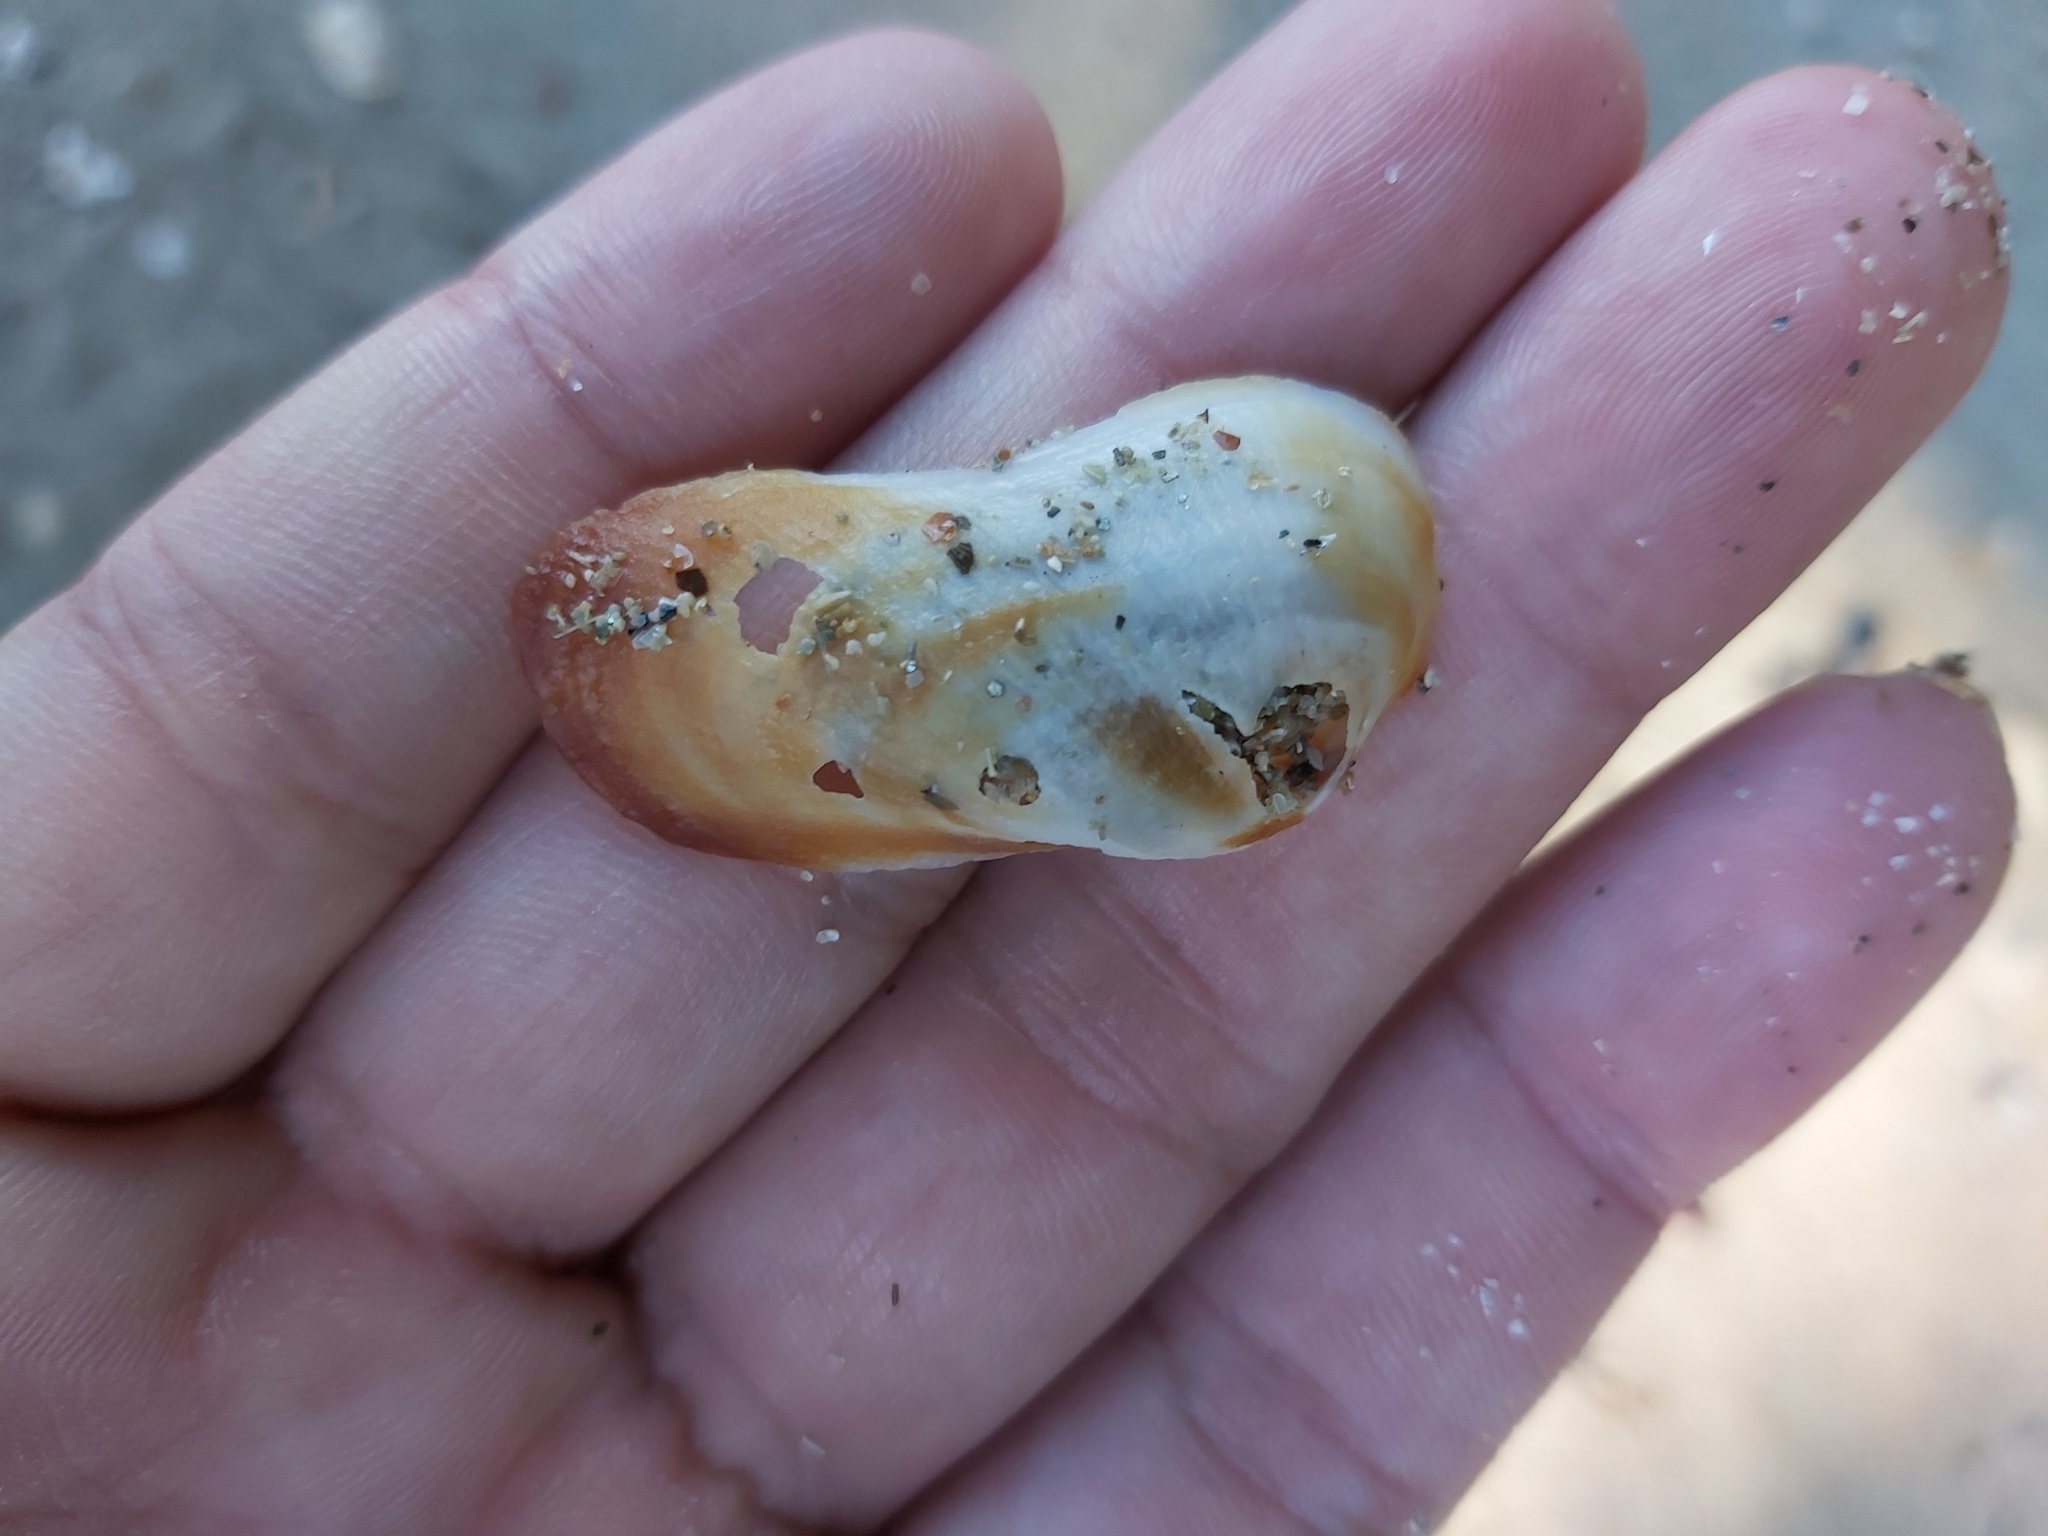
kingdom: Animalia
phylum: Mollusca
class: Bivalvia
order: Arcida
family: Arcidae
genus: Barbatia
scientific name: Barbatia amygdalumtostum
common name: Burnt-almond ark
